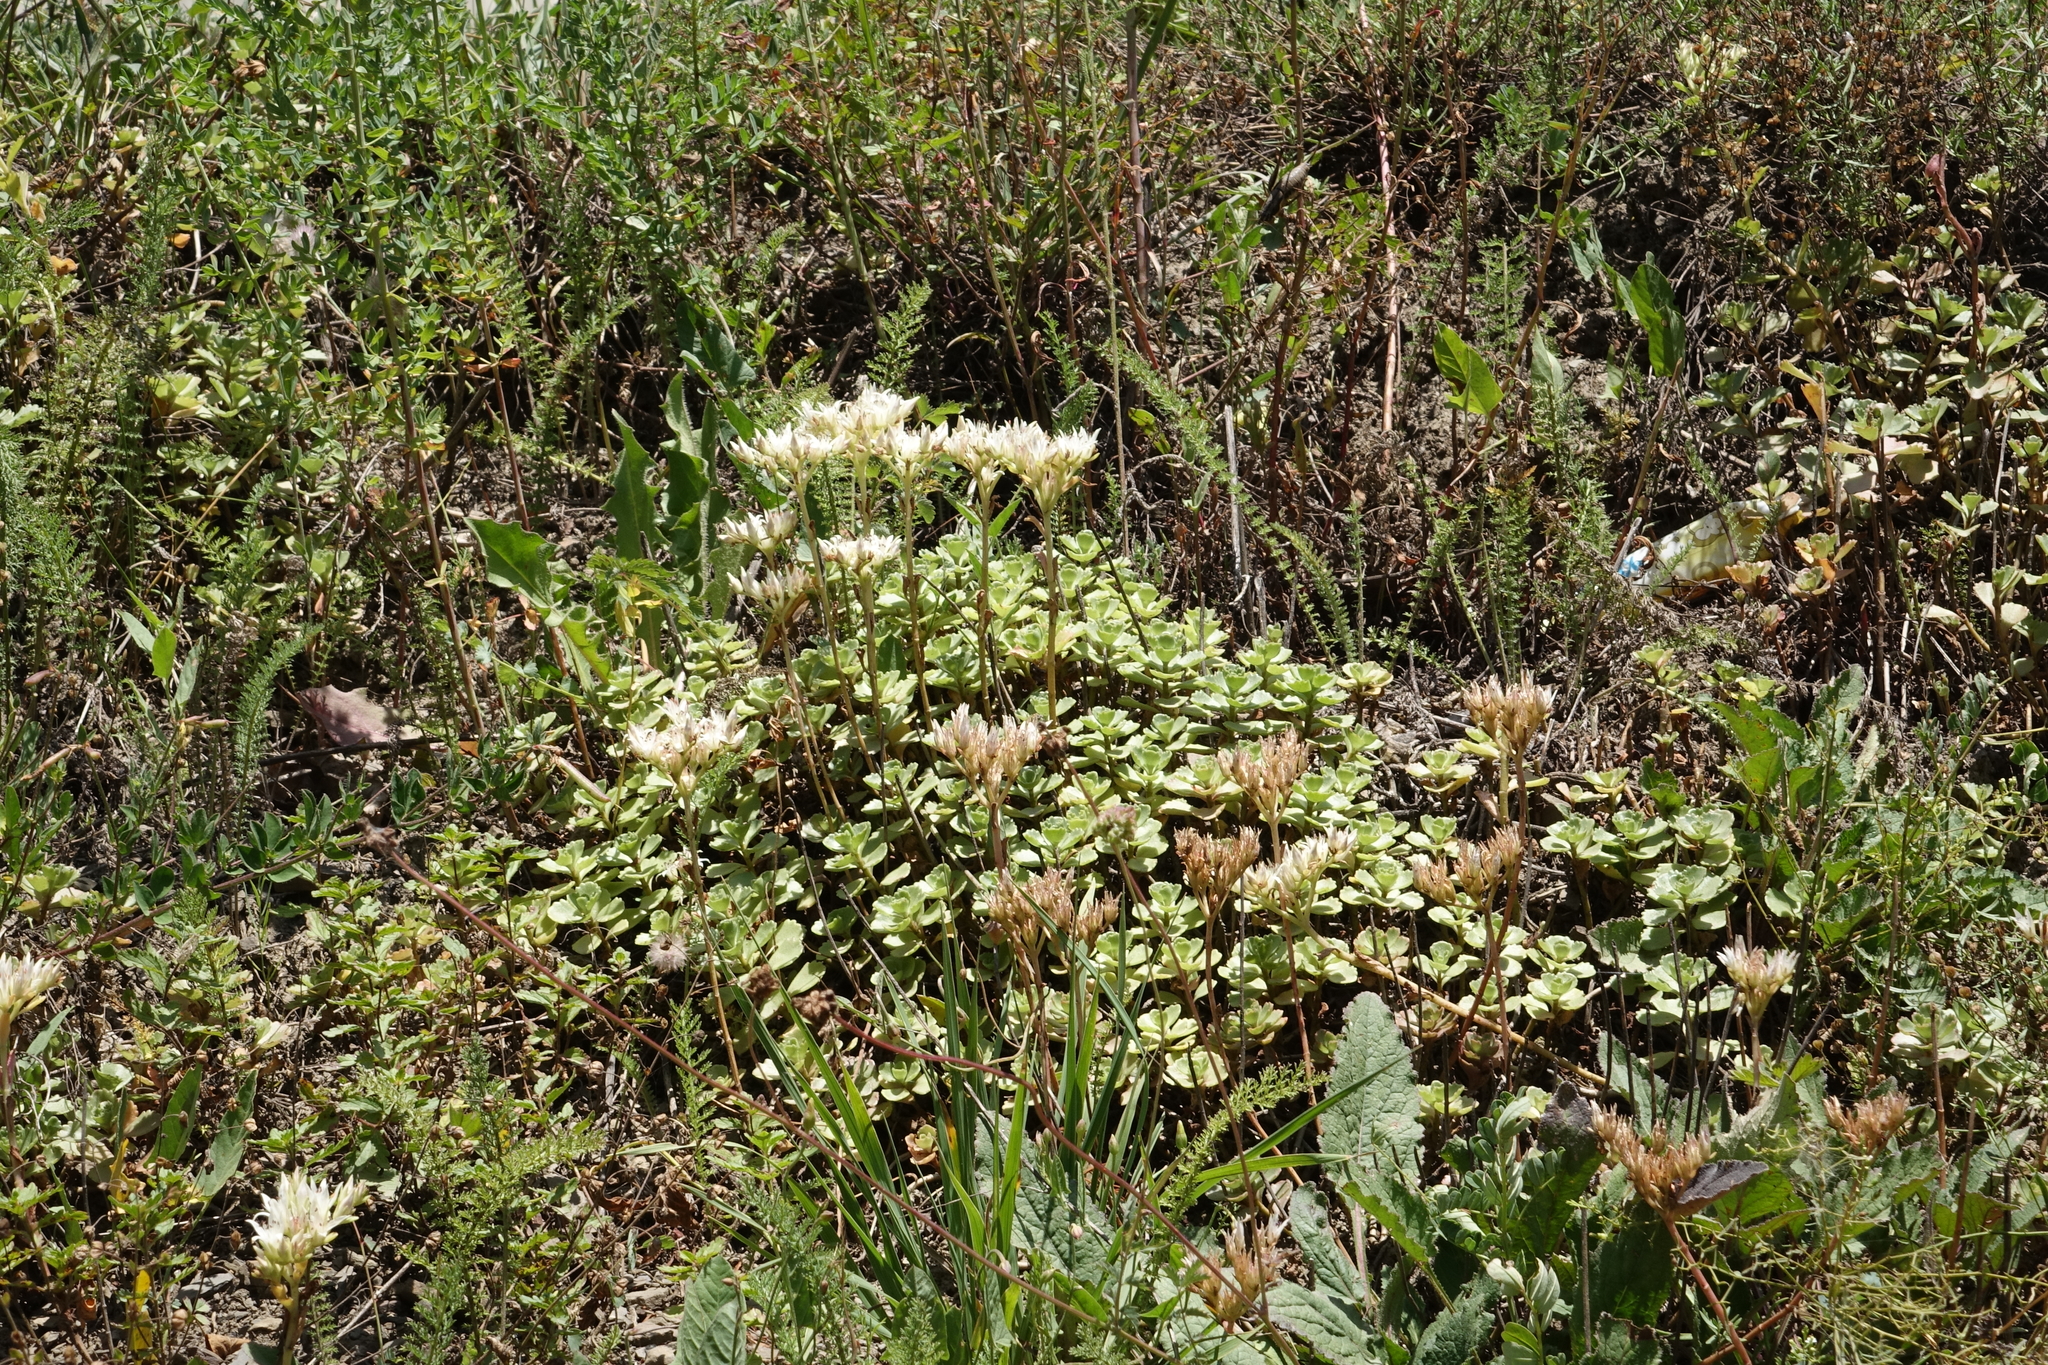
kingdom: Plantae
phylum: Tracheophyta
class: Magnoliopsida
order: Saxifragales
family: Crassulaceae
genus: Phedimus
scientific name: Phedimus spurius
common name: Caucasian stonecrop
